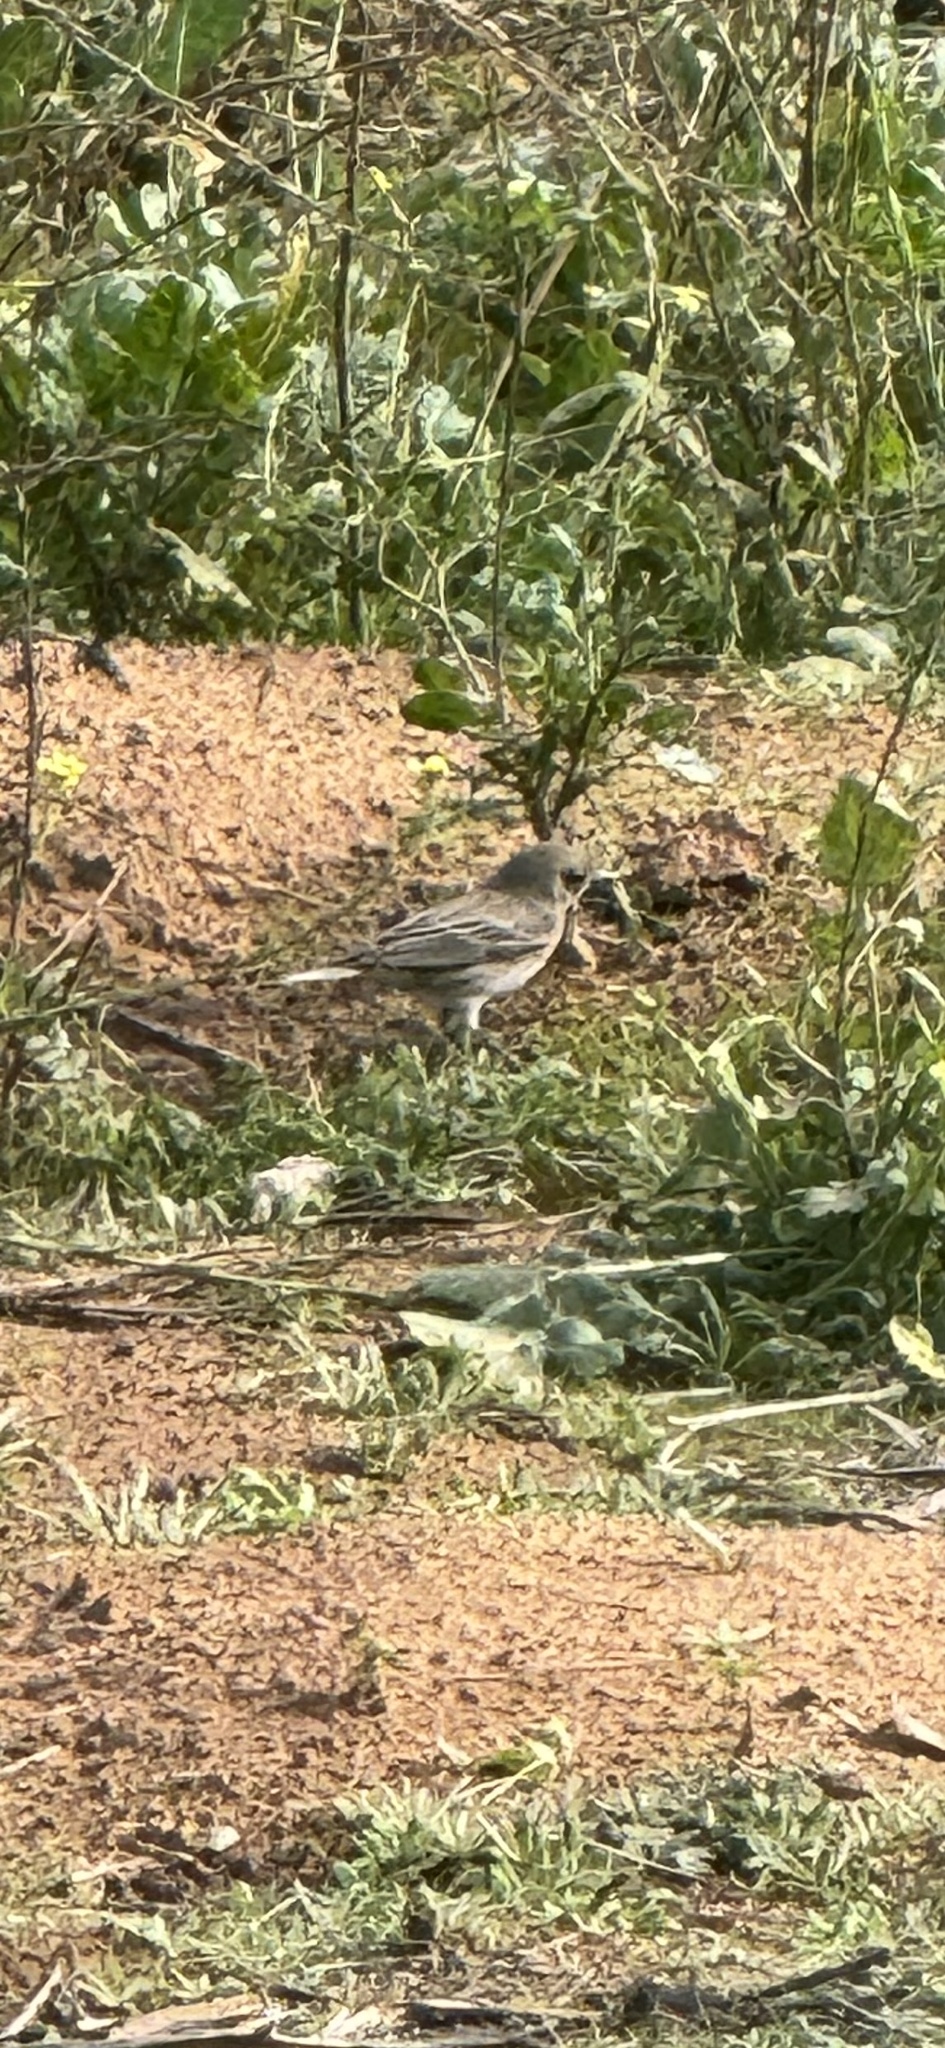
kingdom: Animalia
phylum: Chordata
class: Aves
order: Passeriformes
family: Parulidae
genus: Setophaga
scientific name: Setophaga auduboni
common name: Audubon's warbler
